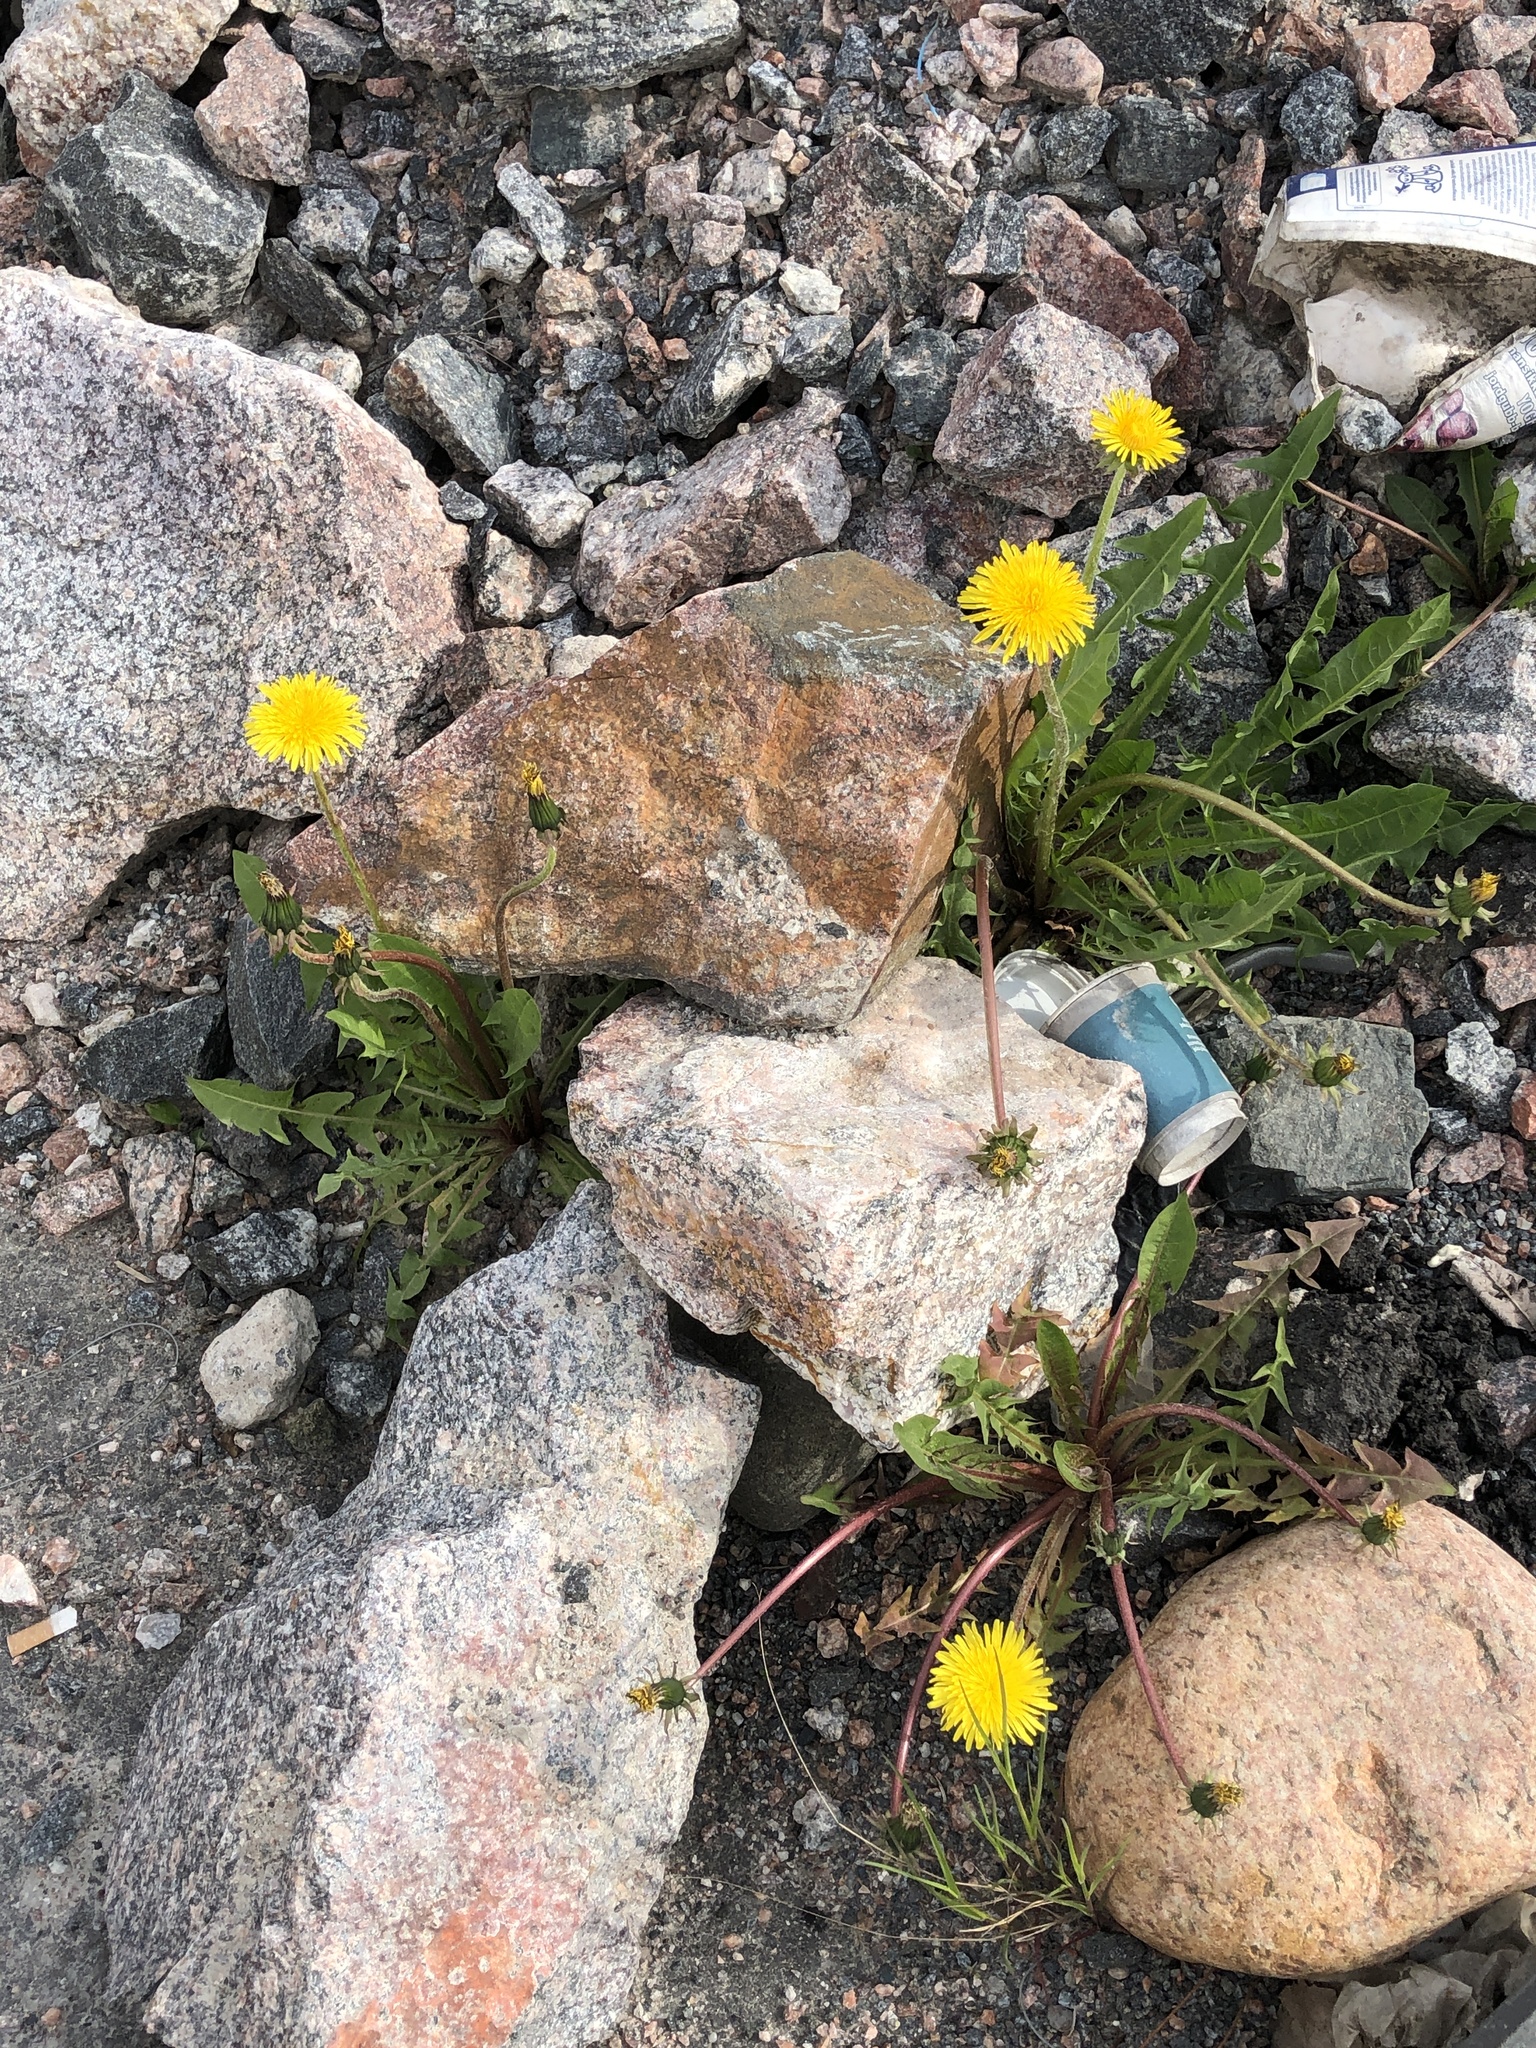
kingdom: Plantae
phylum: Tracheophyta
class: Magnoliopsida
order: Asterales
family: Asteraceae
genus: Taraxacum
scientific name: Taraxacum officinale
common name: Common dandelion
